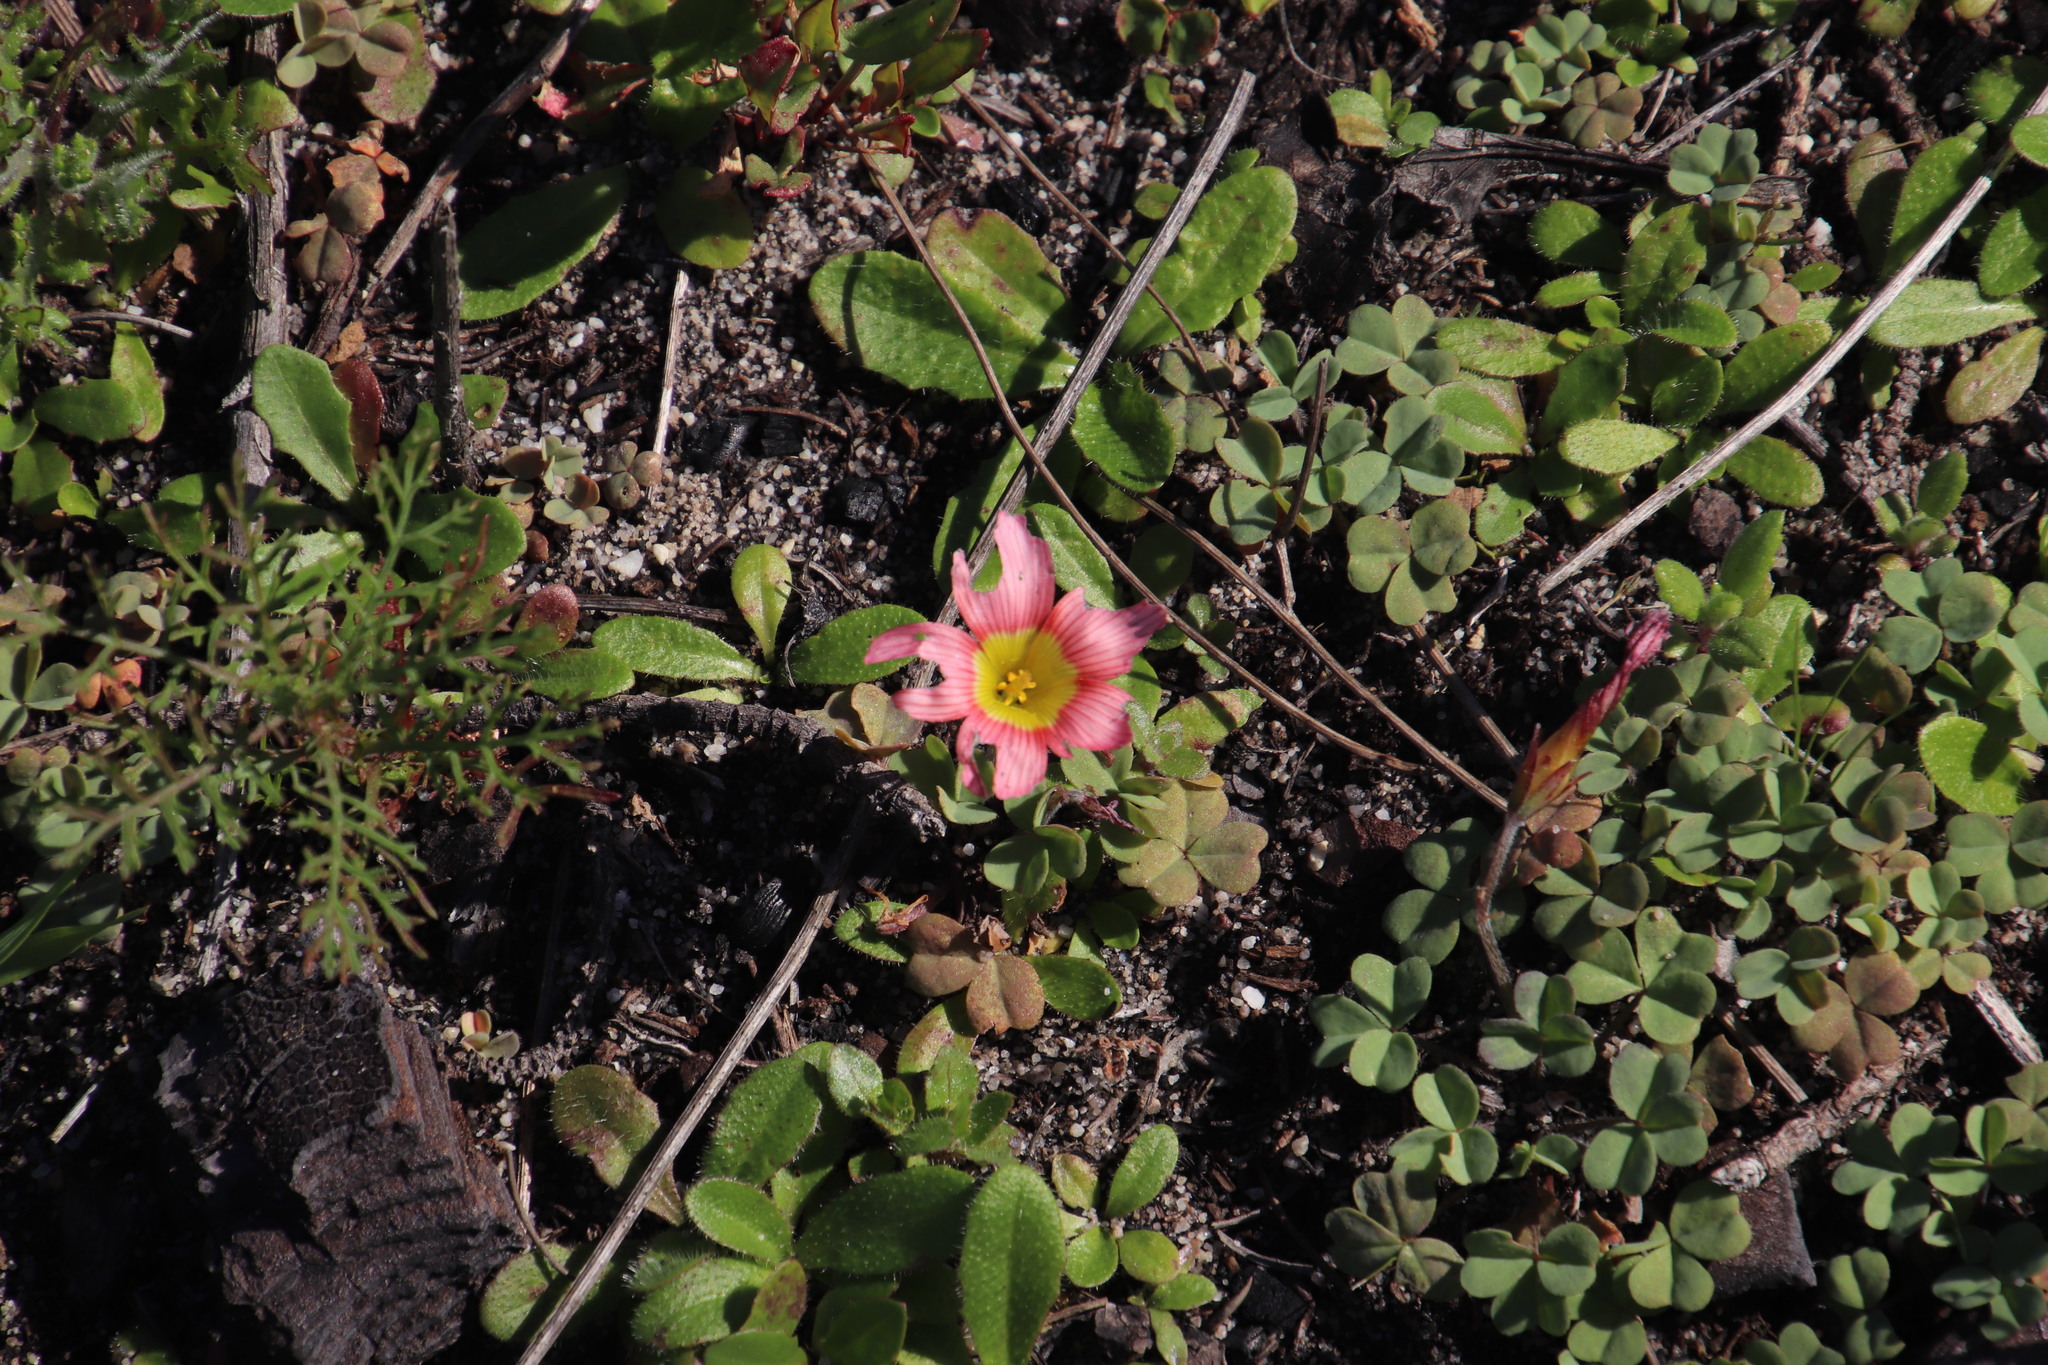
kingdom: Plantae
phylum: Tracheophyta
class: Magnoliopsida
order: Oxalidales
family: Oxalidaceae
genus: Oxalis
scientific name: Oxalis obtusa
